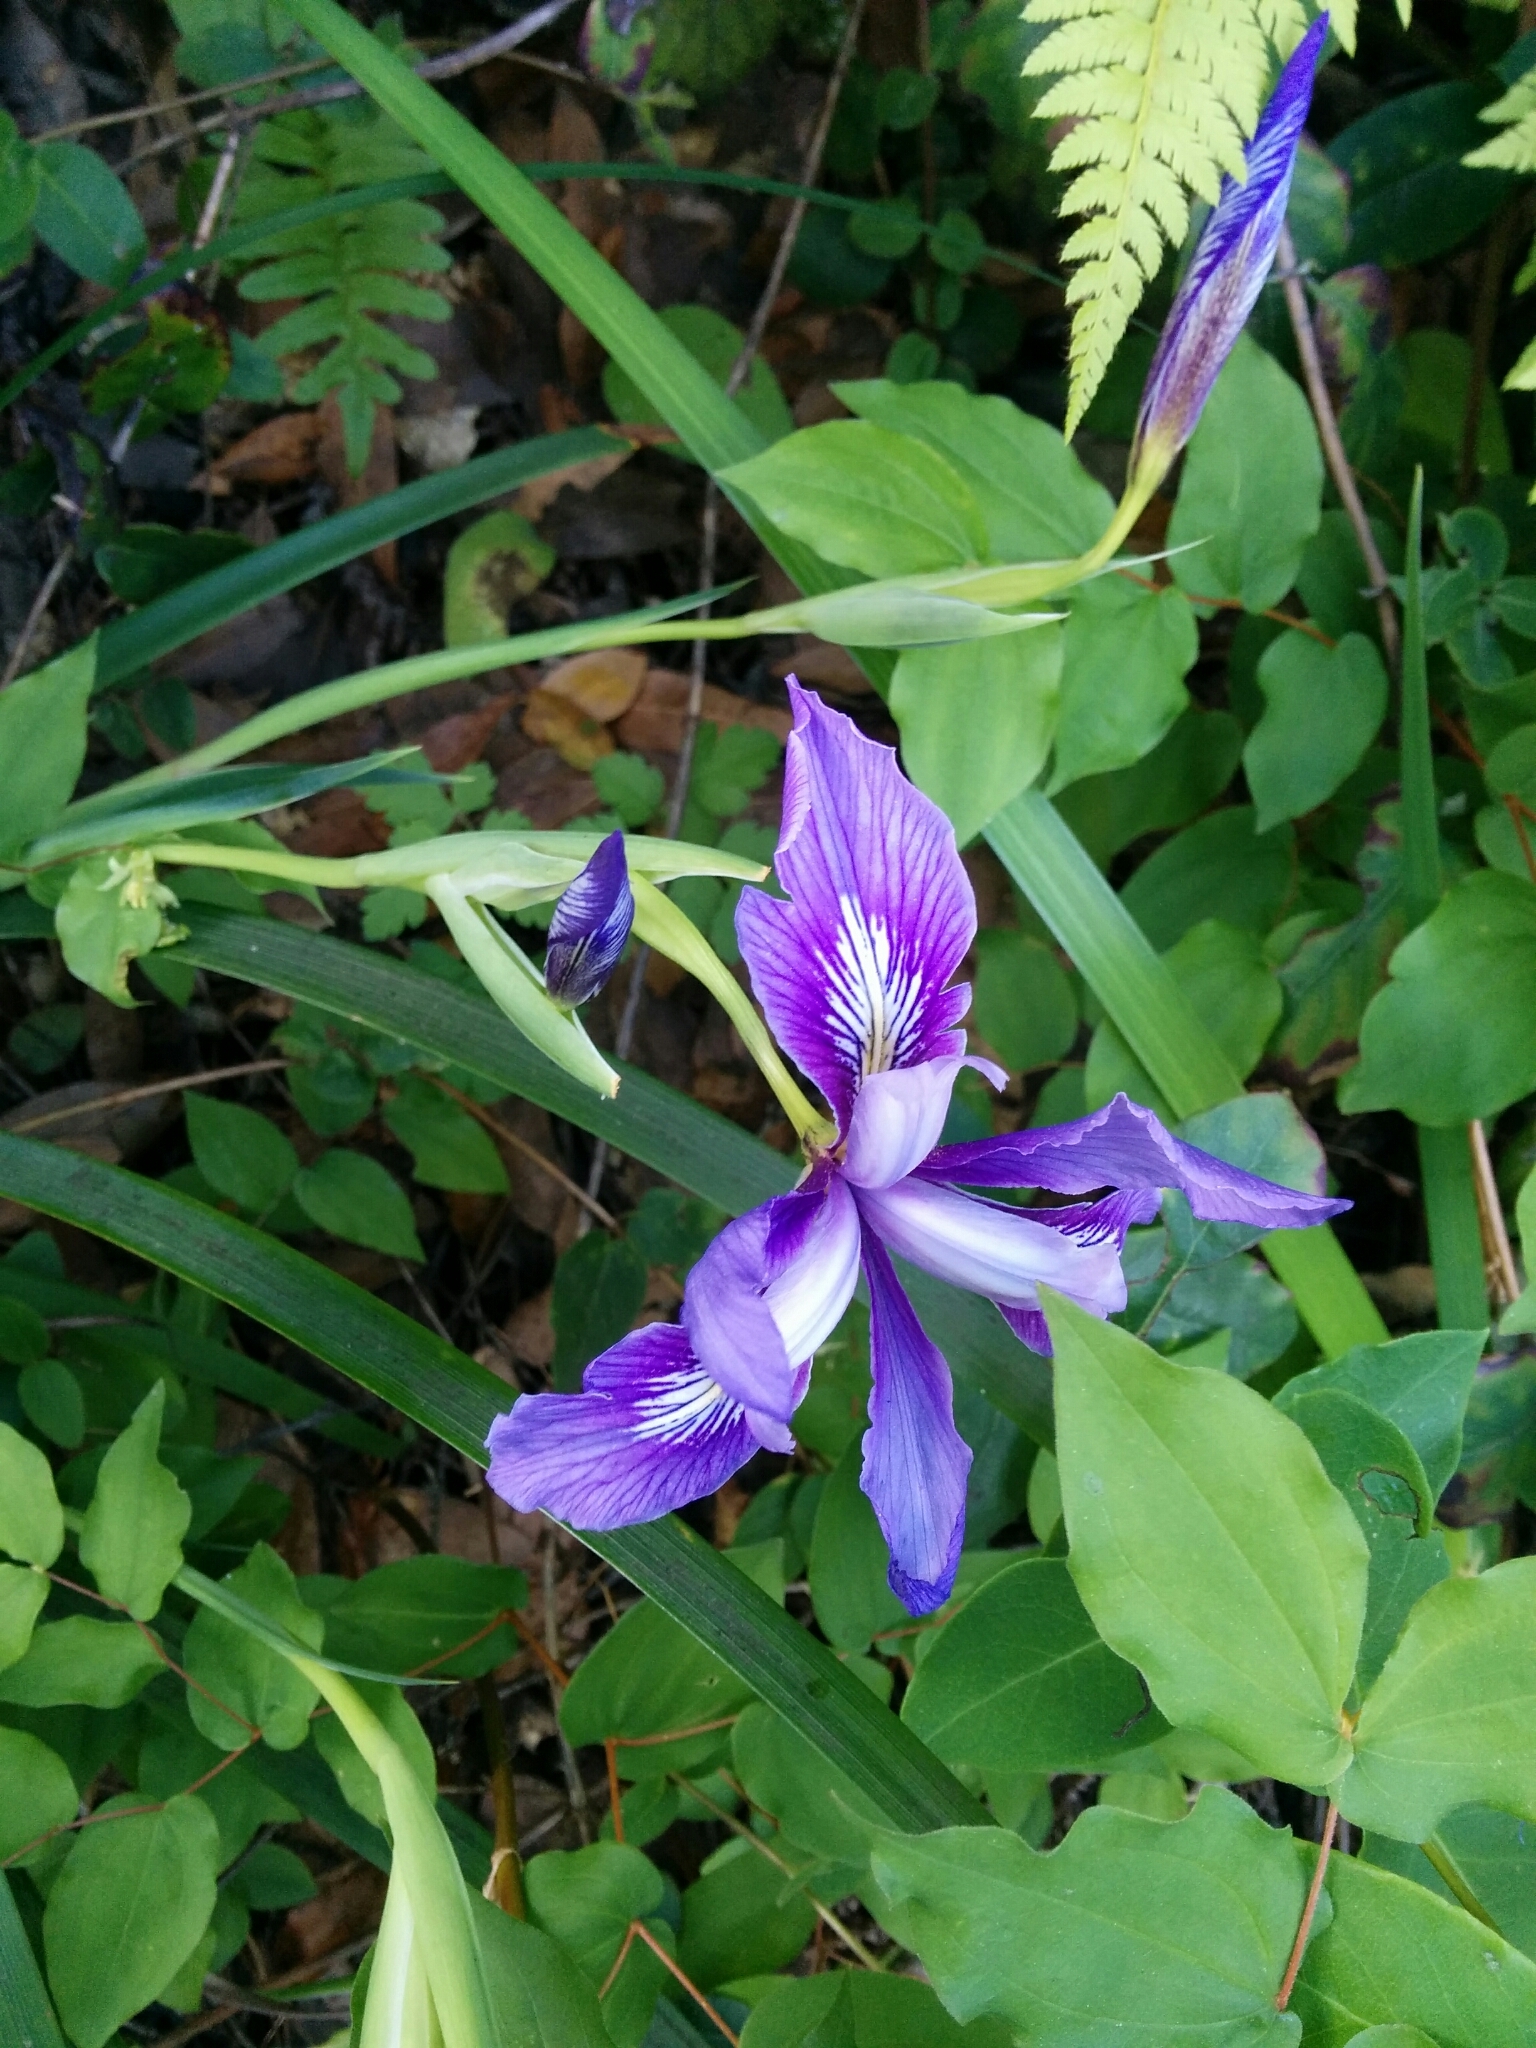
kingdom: Plantae
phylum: Tracheophyta
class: Liliopsida
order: Asparagales
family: Iridaceae
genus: Iris
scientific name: Iris douglasiana
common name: Marin iris
